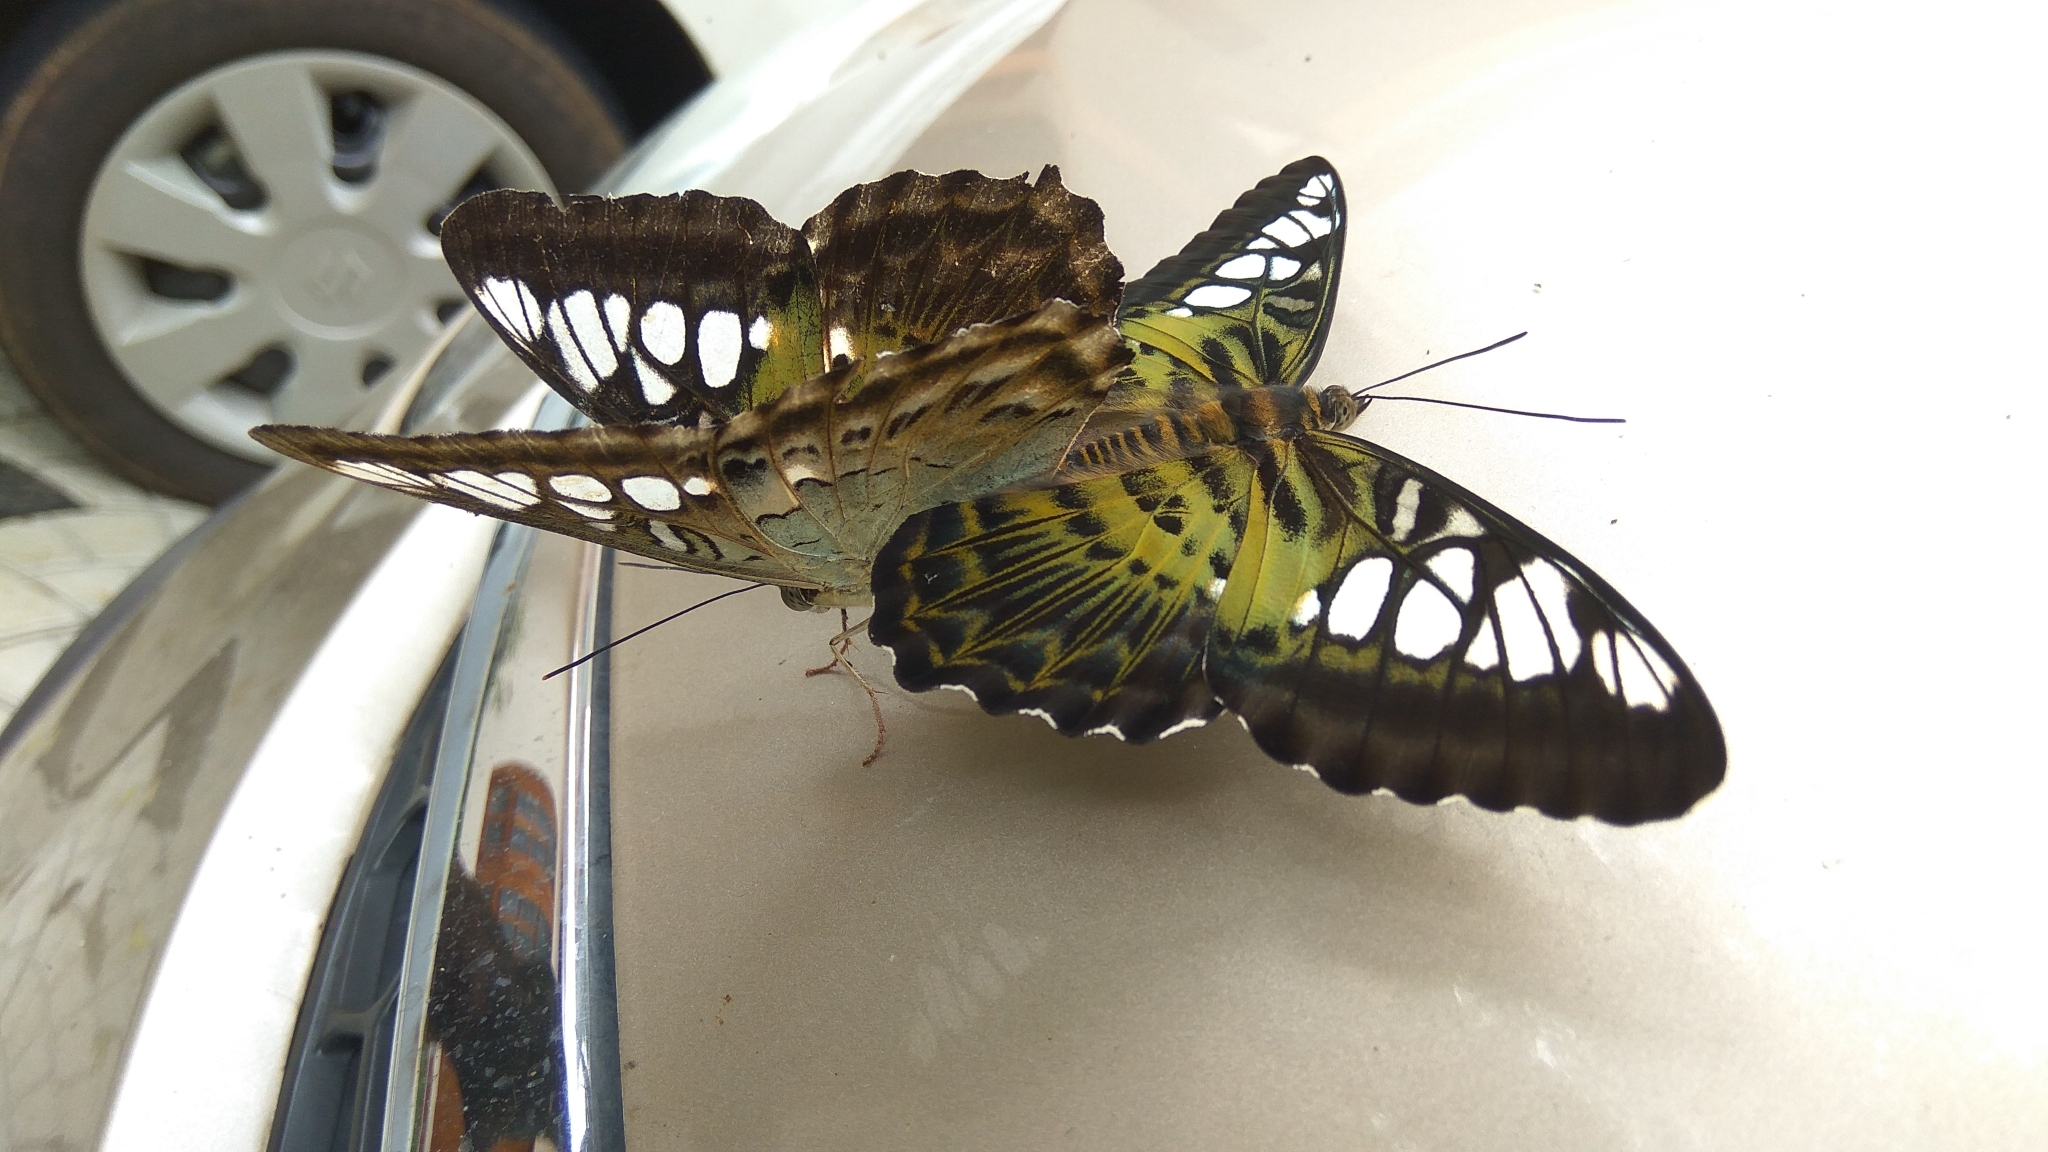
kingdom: Animalia
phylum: Arthropoda
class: Insecta
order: Lepidoptera
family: Nymphalidae
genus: Kallima
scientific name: Kallima sylvia
